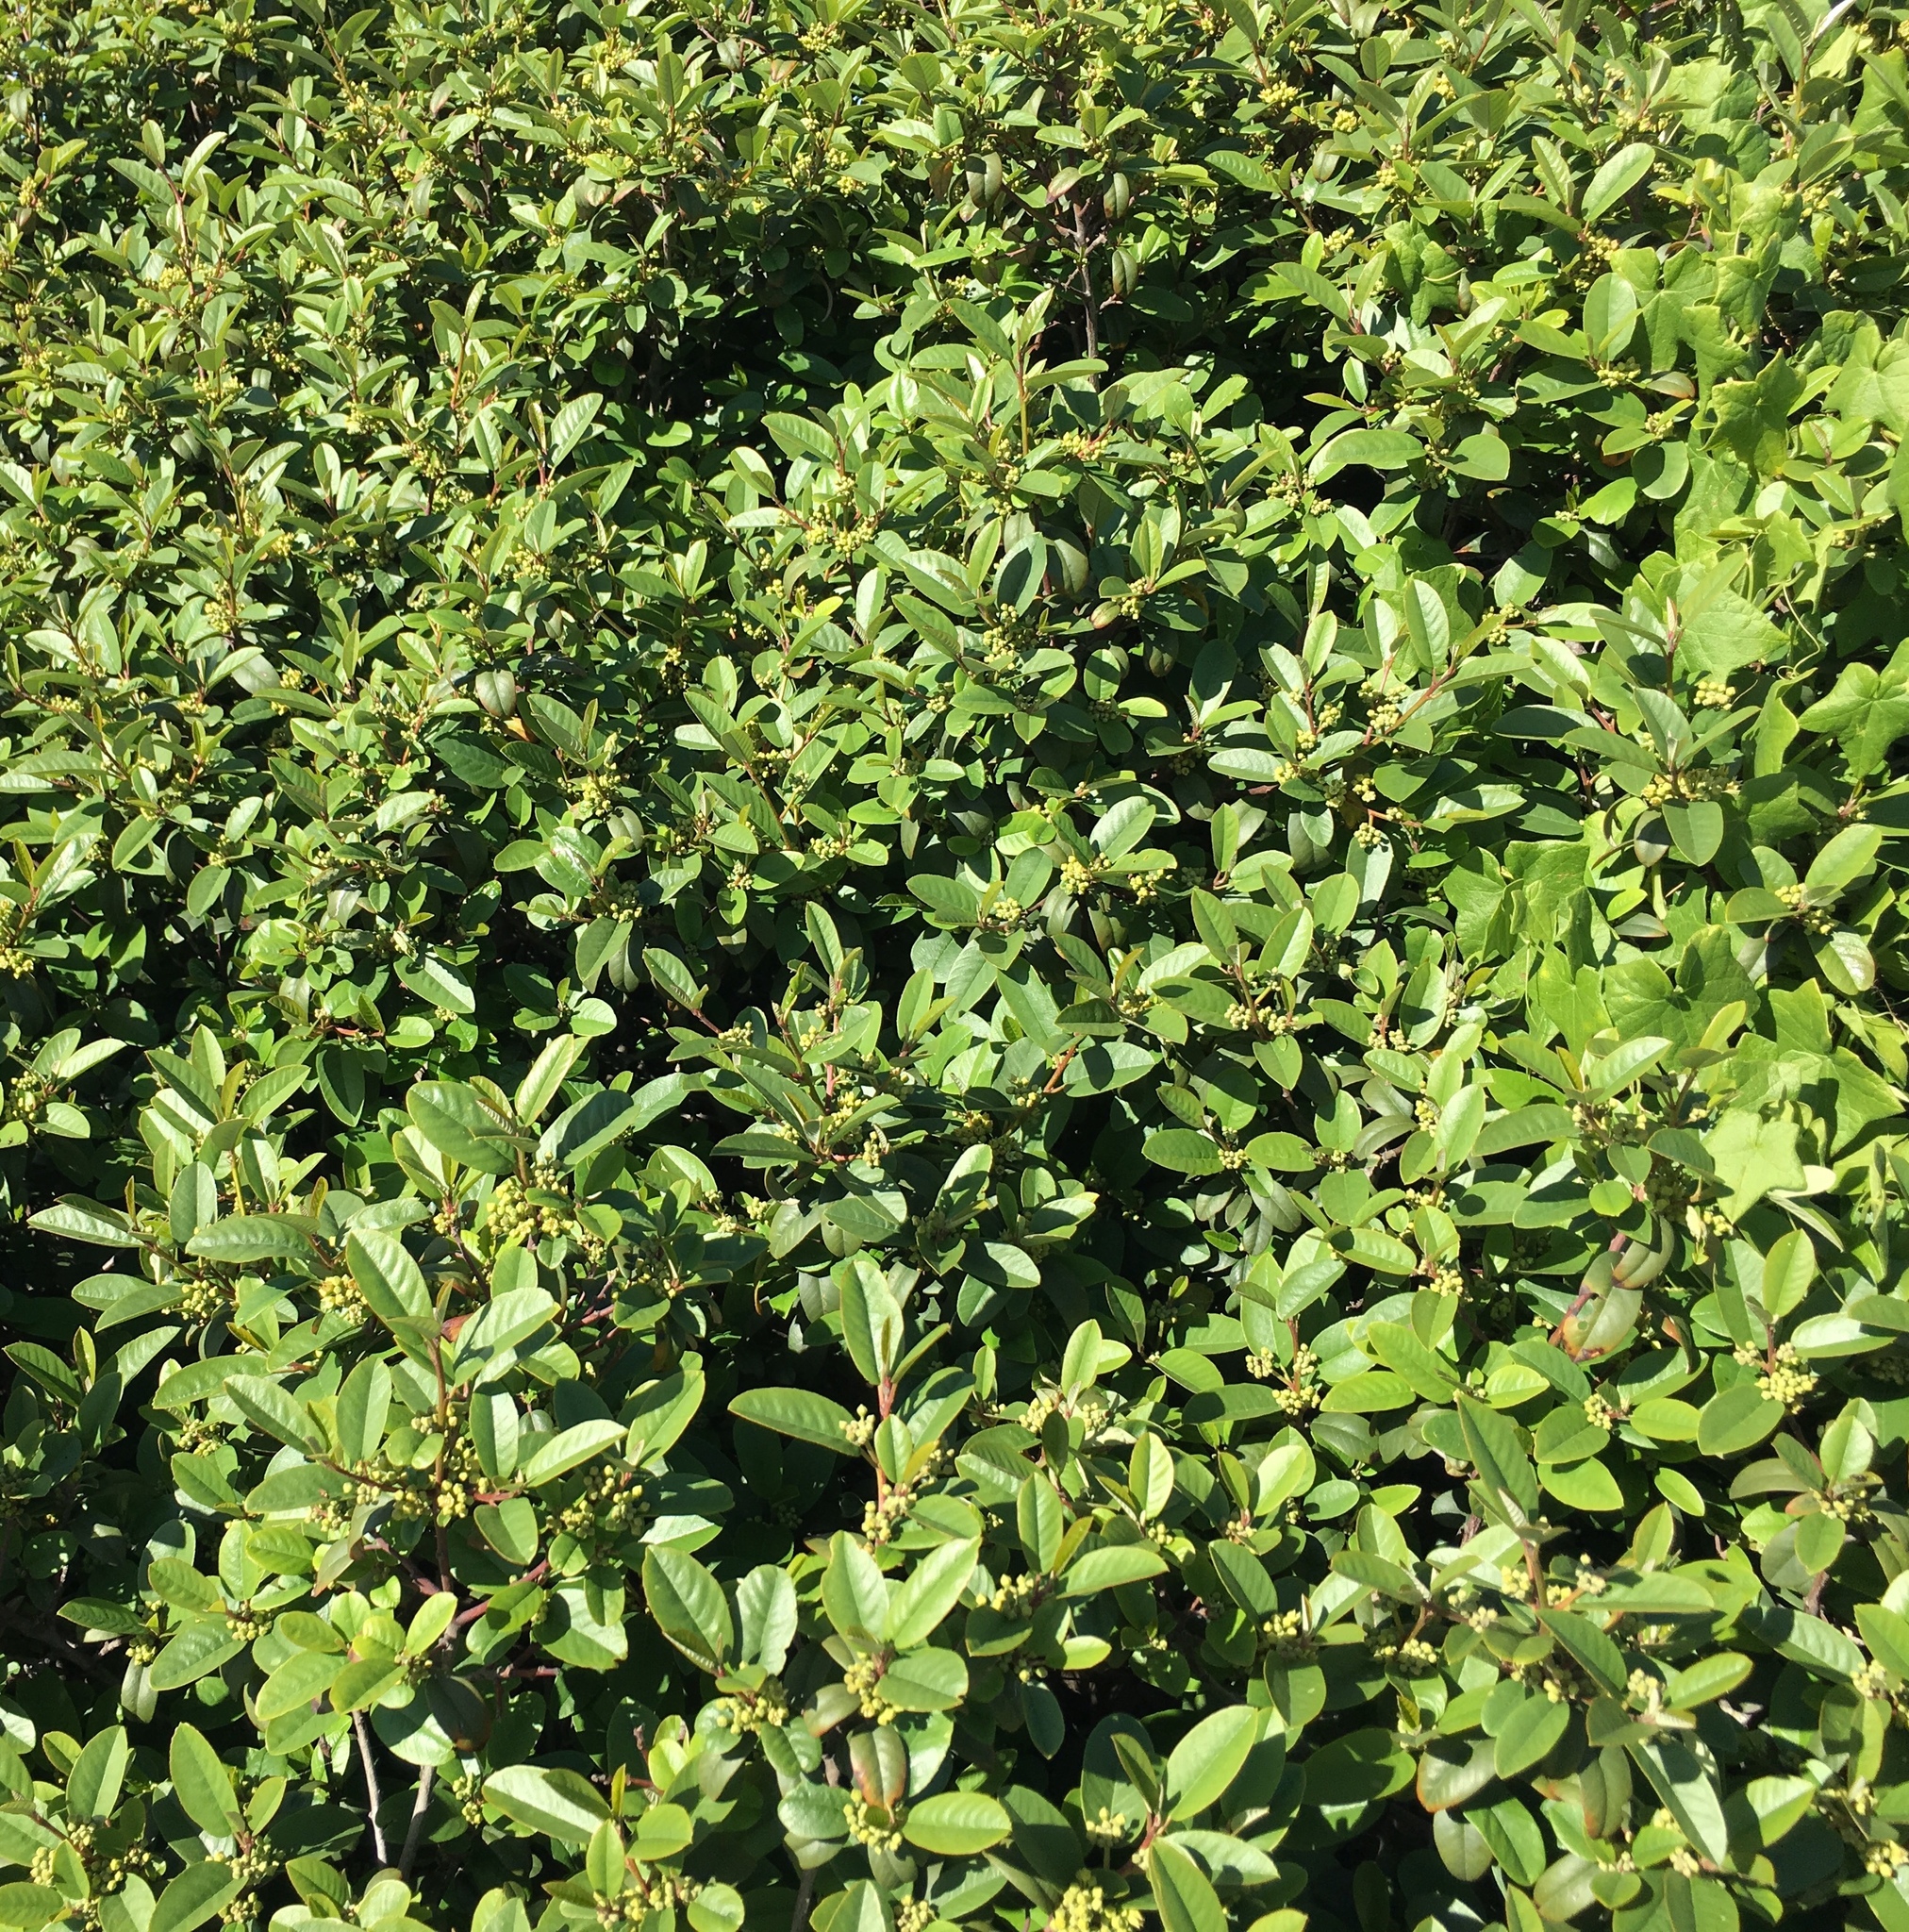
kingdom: Plantae
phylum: Tracheophyta
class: Magnoliopsida
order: Rosales
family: Rhamnaceae
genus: Frangula
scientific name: Frangula californica
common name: California buckthorn
